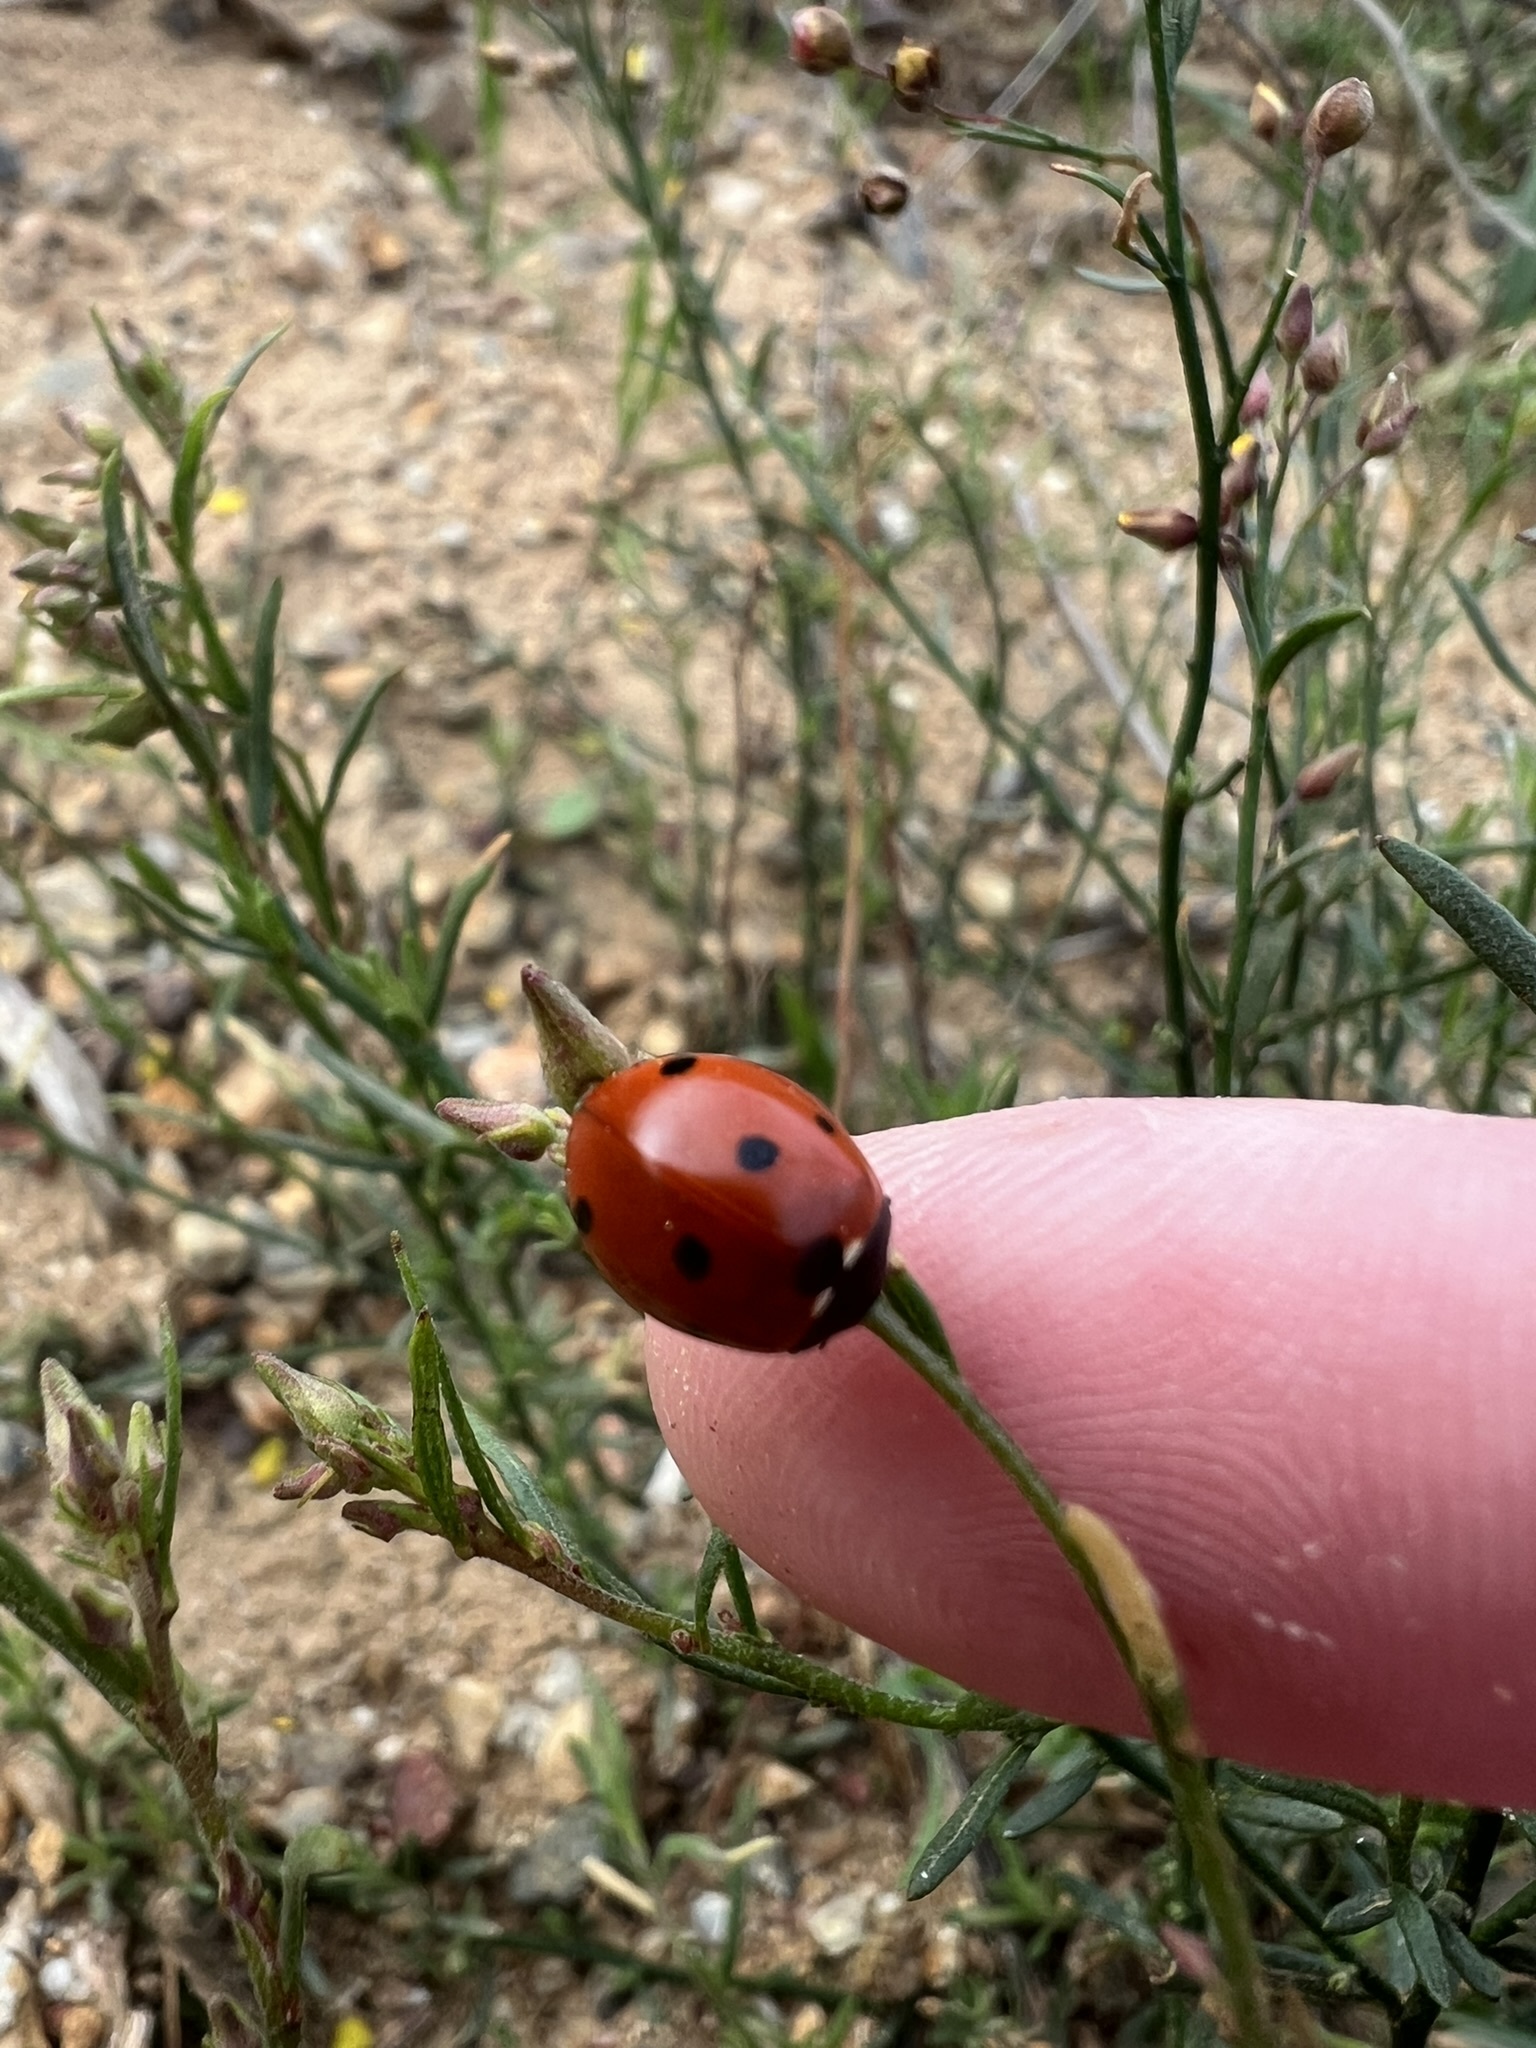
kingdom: Plantae
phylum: Tracheophyta
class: Magnoliopsida
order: Malvales
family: Cistaceae
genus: Crocanthemum
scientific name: Crocanthemum scoparium
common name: Broom-rose
